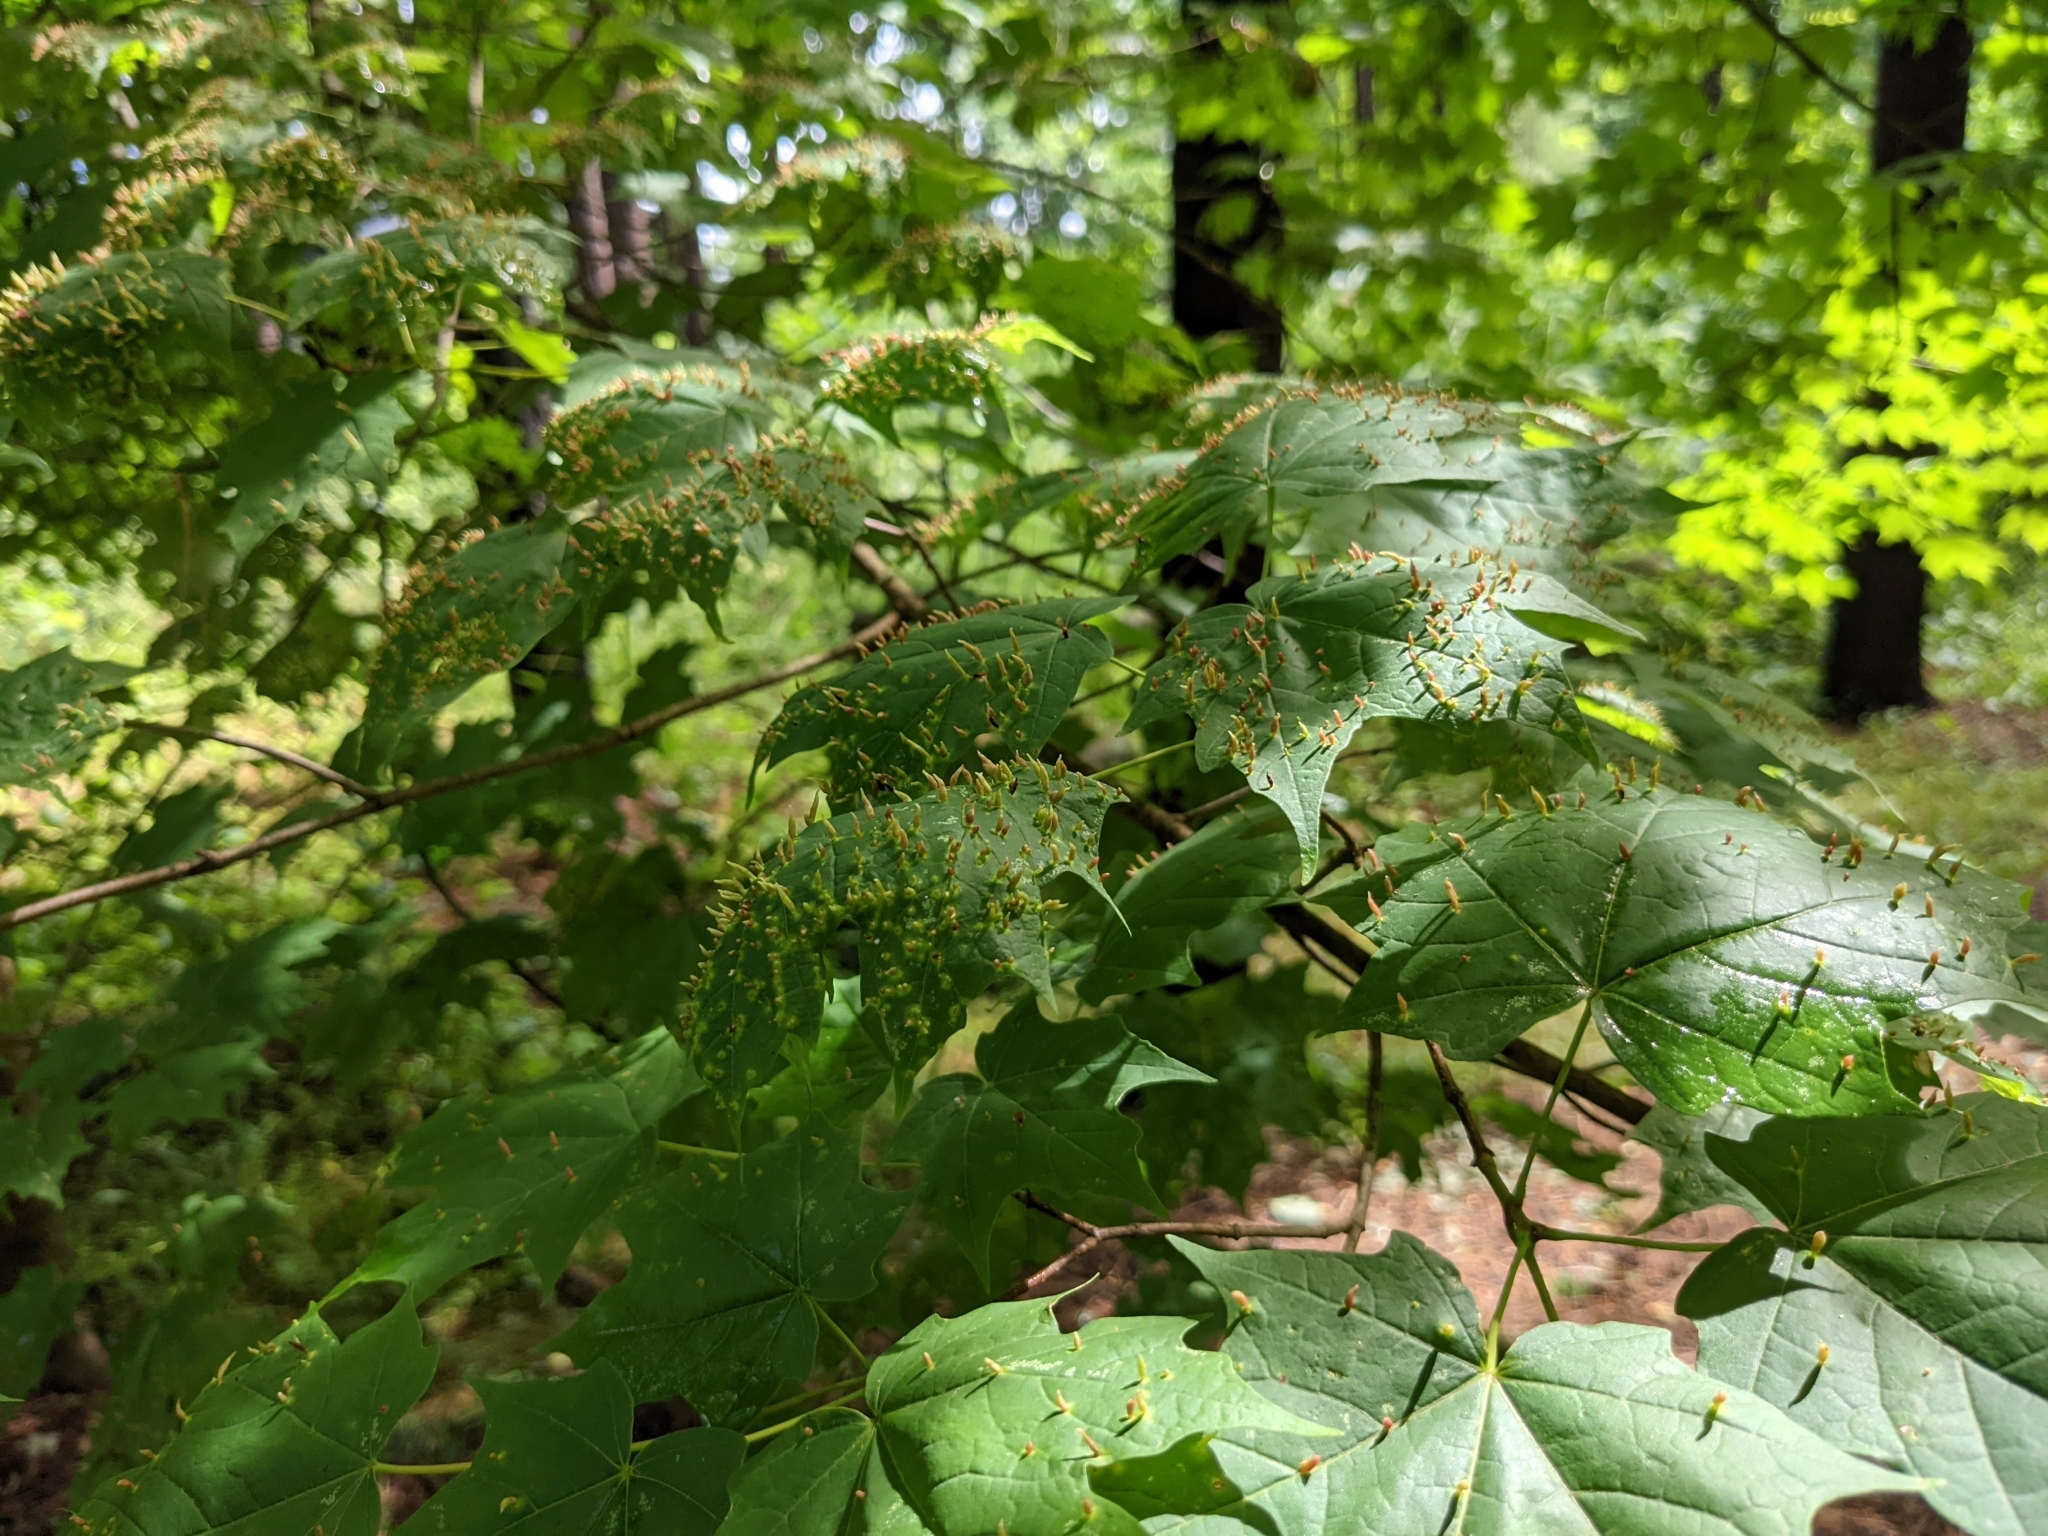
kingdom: Animalia
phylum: Arthropoda
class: Arachnida
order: Trombidiformes
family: Eriophyidae
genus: Vasates
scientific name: Vasates aceriscrumena
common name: Maple spindle gall mite
